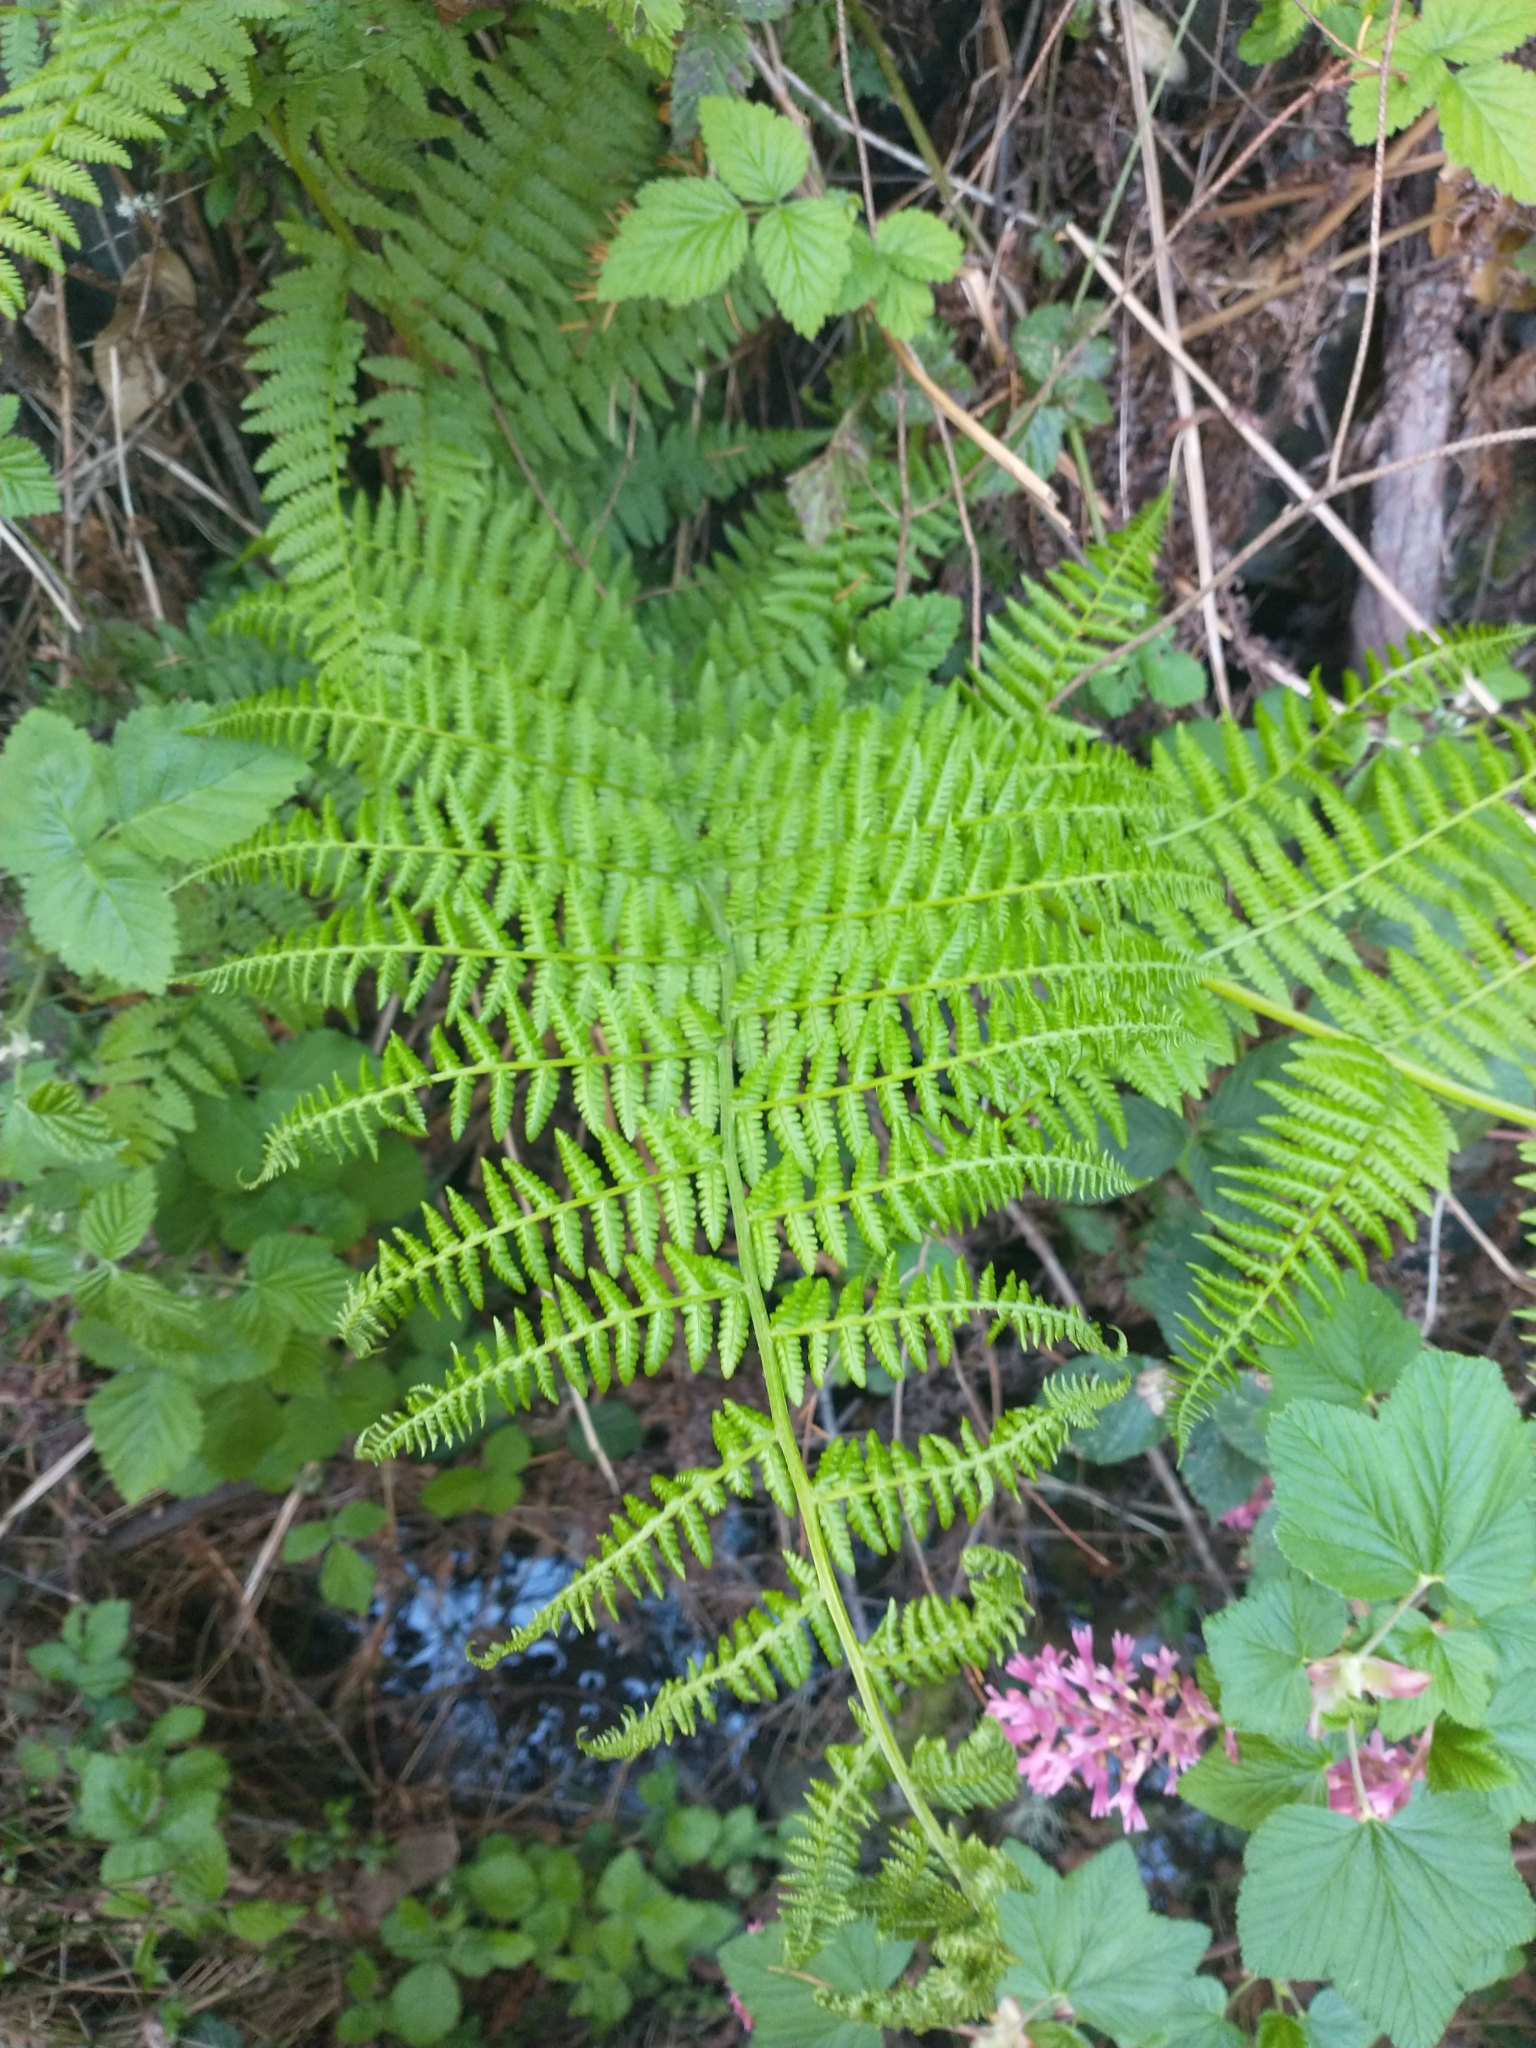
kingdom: Plantae
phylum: Tracheophyta
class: Polypodiopsida
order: Polypodiales
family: Athyriaceae
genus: Athyrium
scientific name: Athyrium filix-femina
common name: Lady fern
